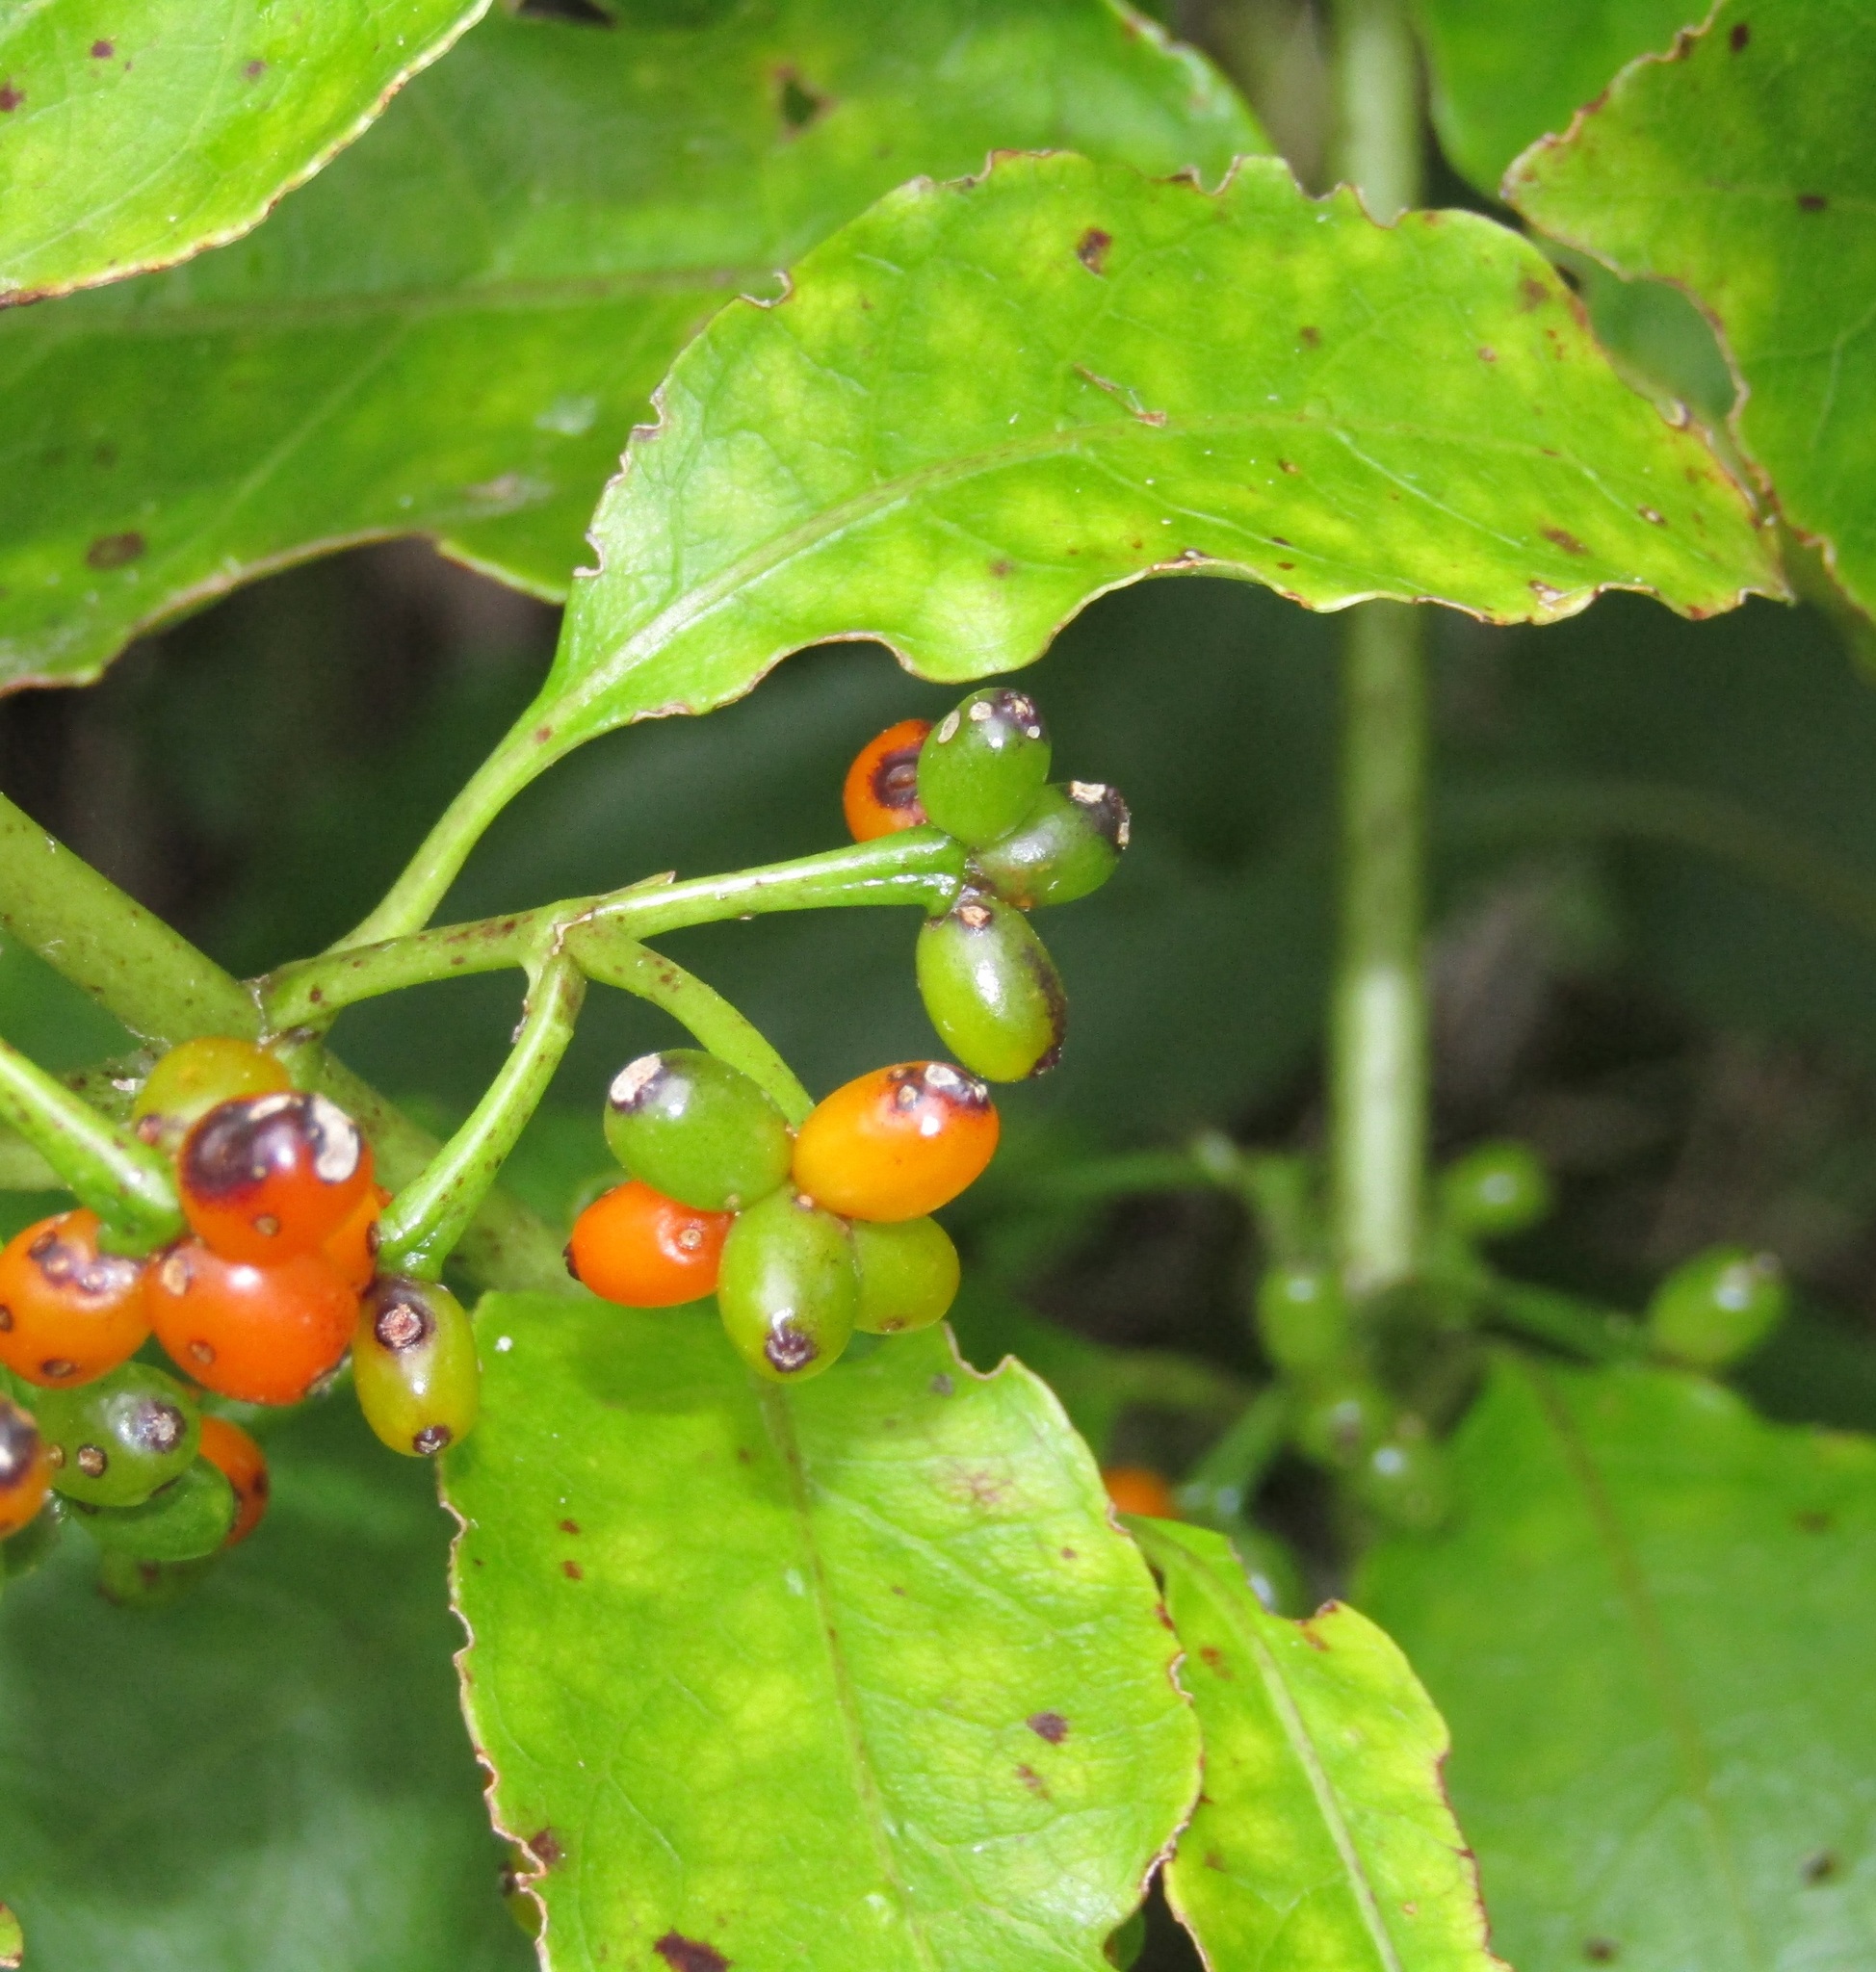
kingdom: Plantae
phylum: Tracheophyta
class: Magnoliopsida
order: Gentianales
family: Rubiaceae
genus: Coprosma
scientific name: Coprosma autumnalis
